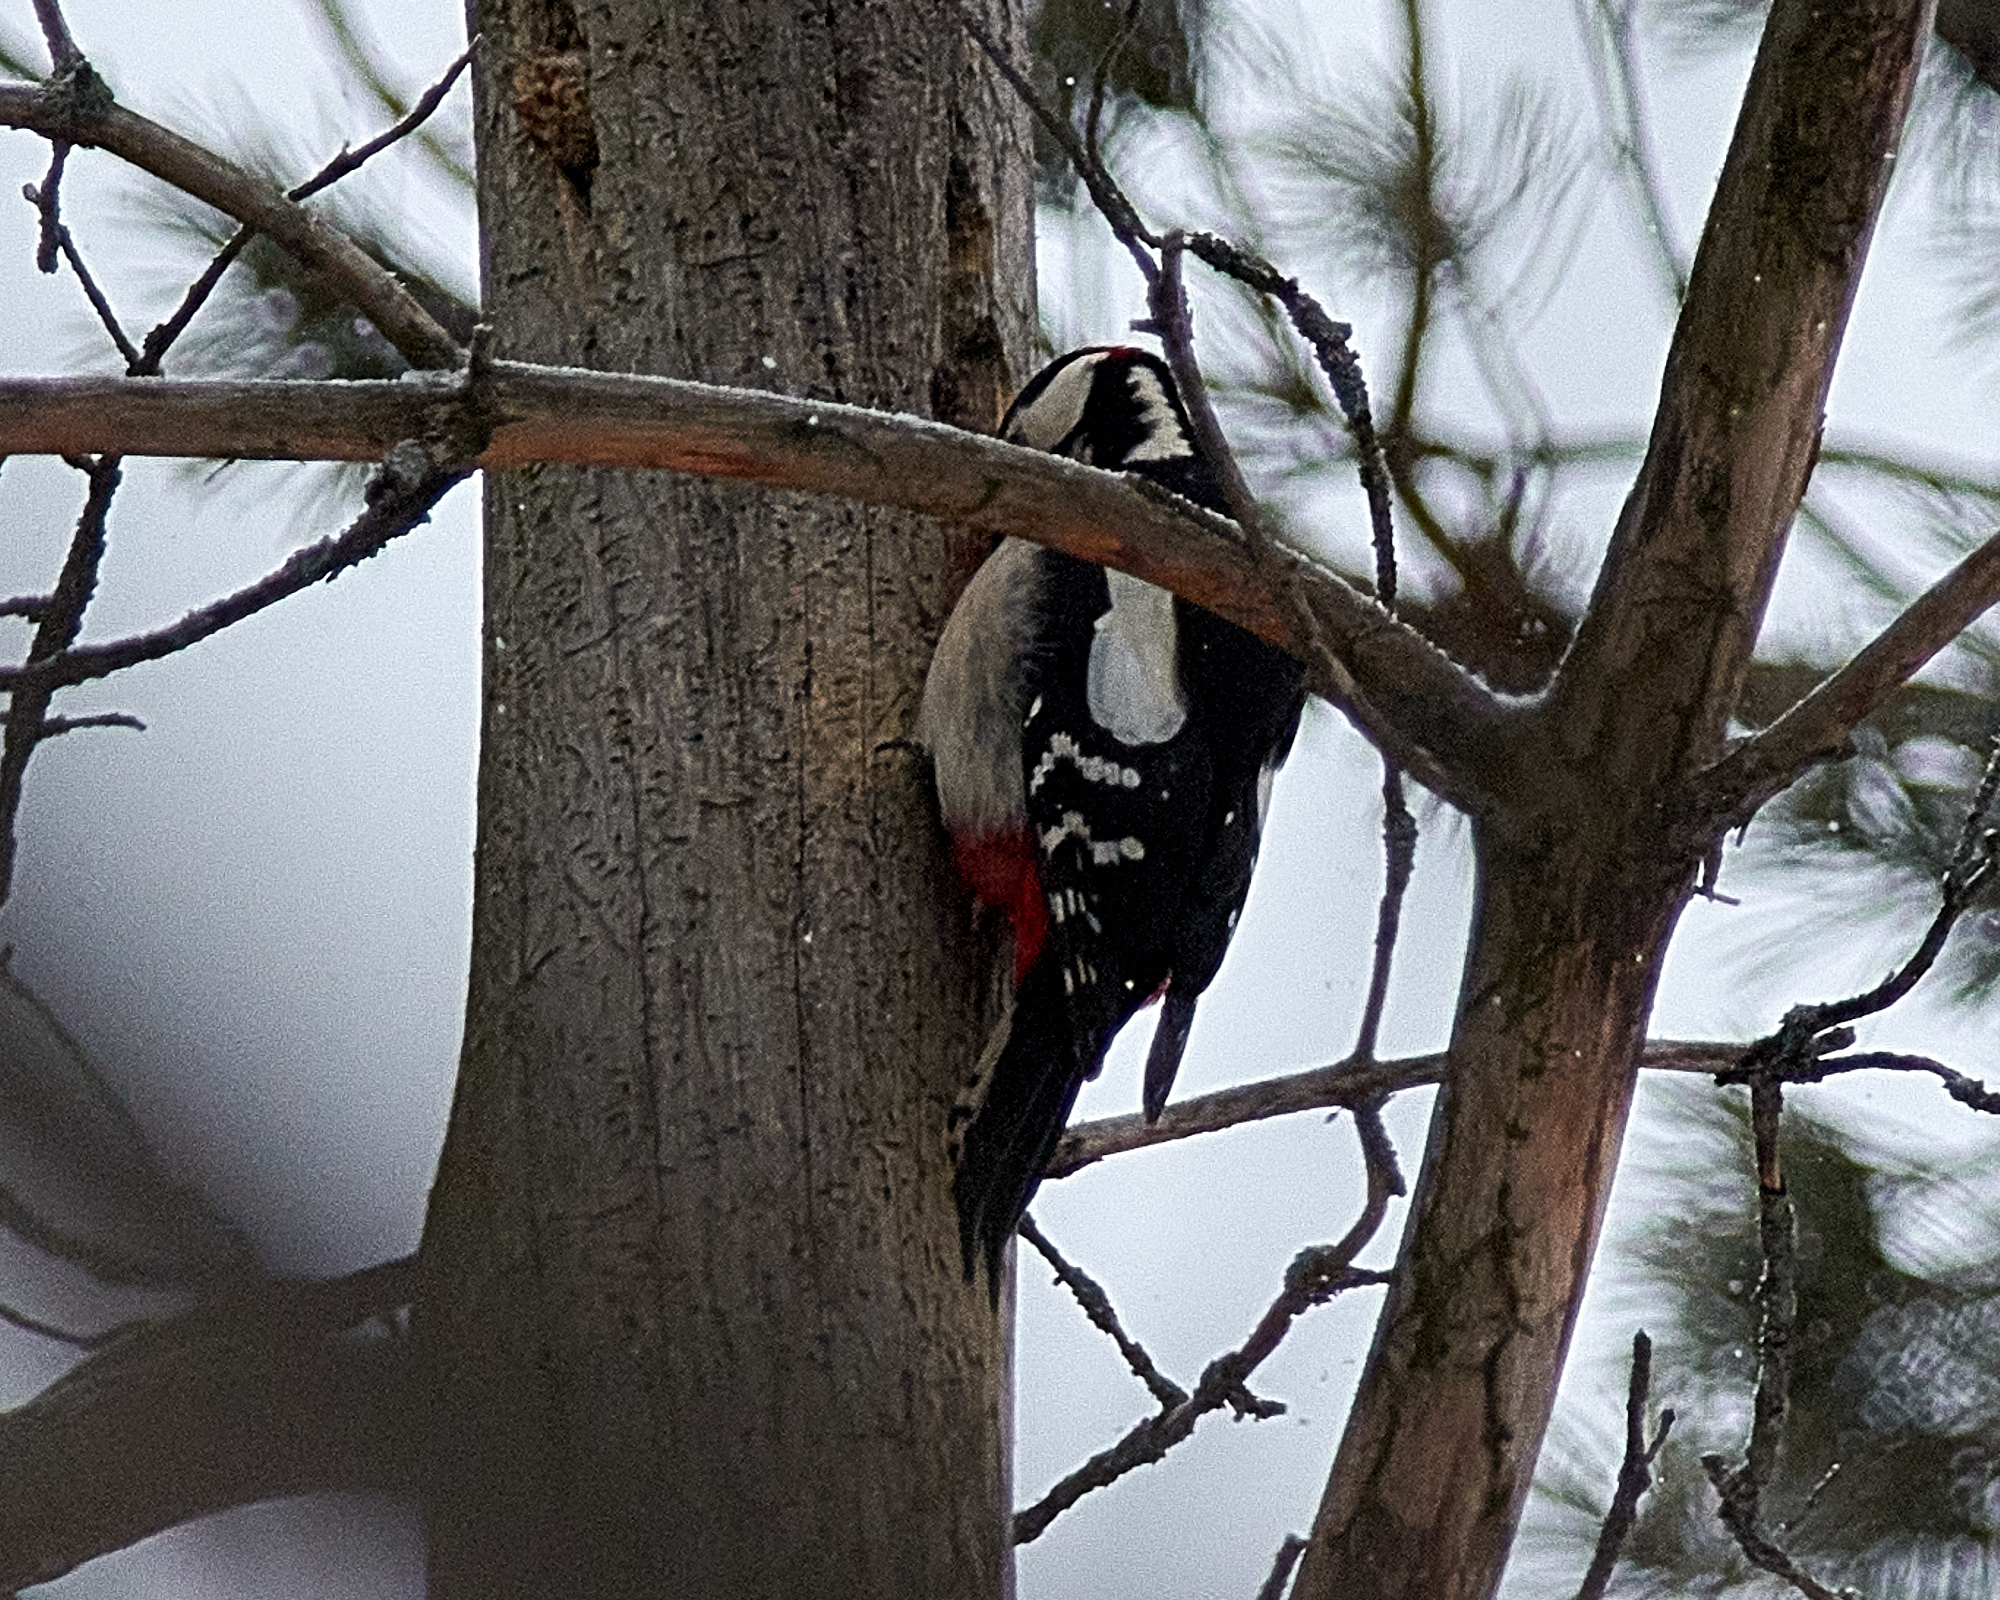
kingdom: Animalia
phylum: Chordata
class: Aves
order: Piciformes
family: Picidae
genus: Dendrocopos
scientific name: Dendrocopos major
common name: Great spotted woodpecker
